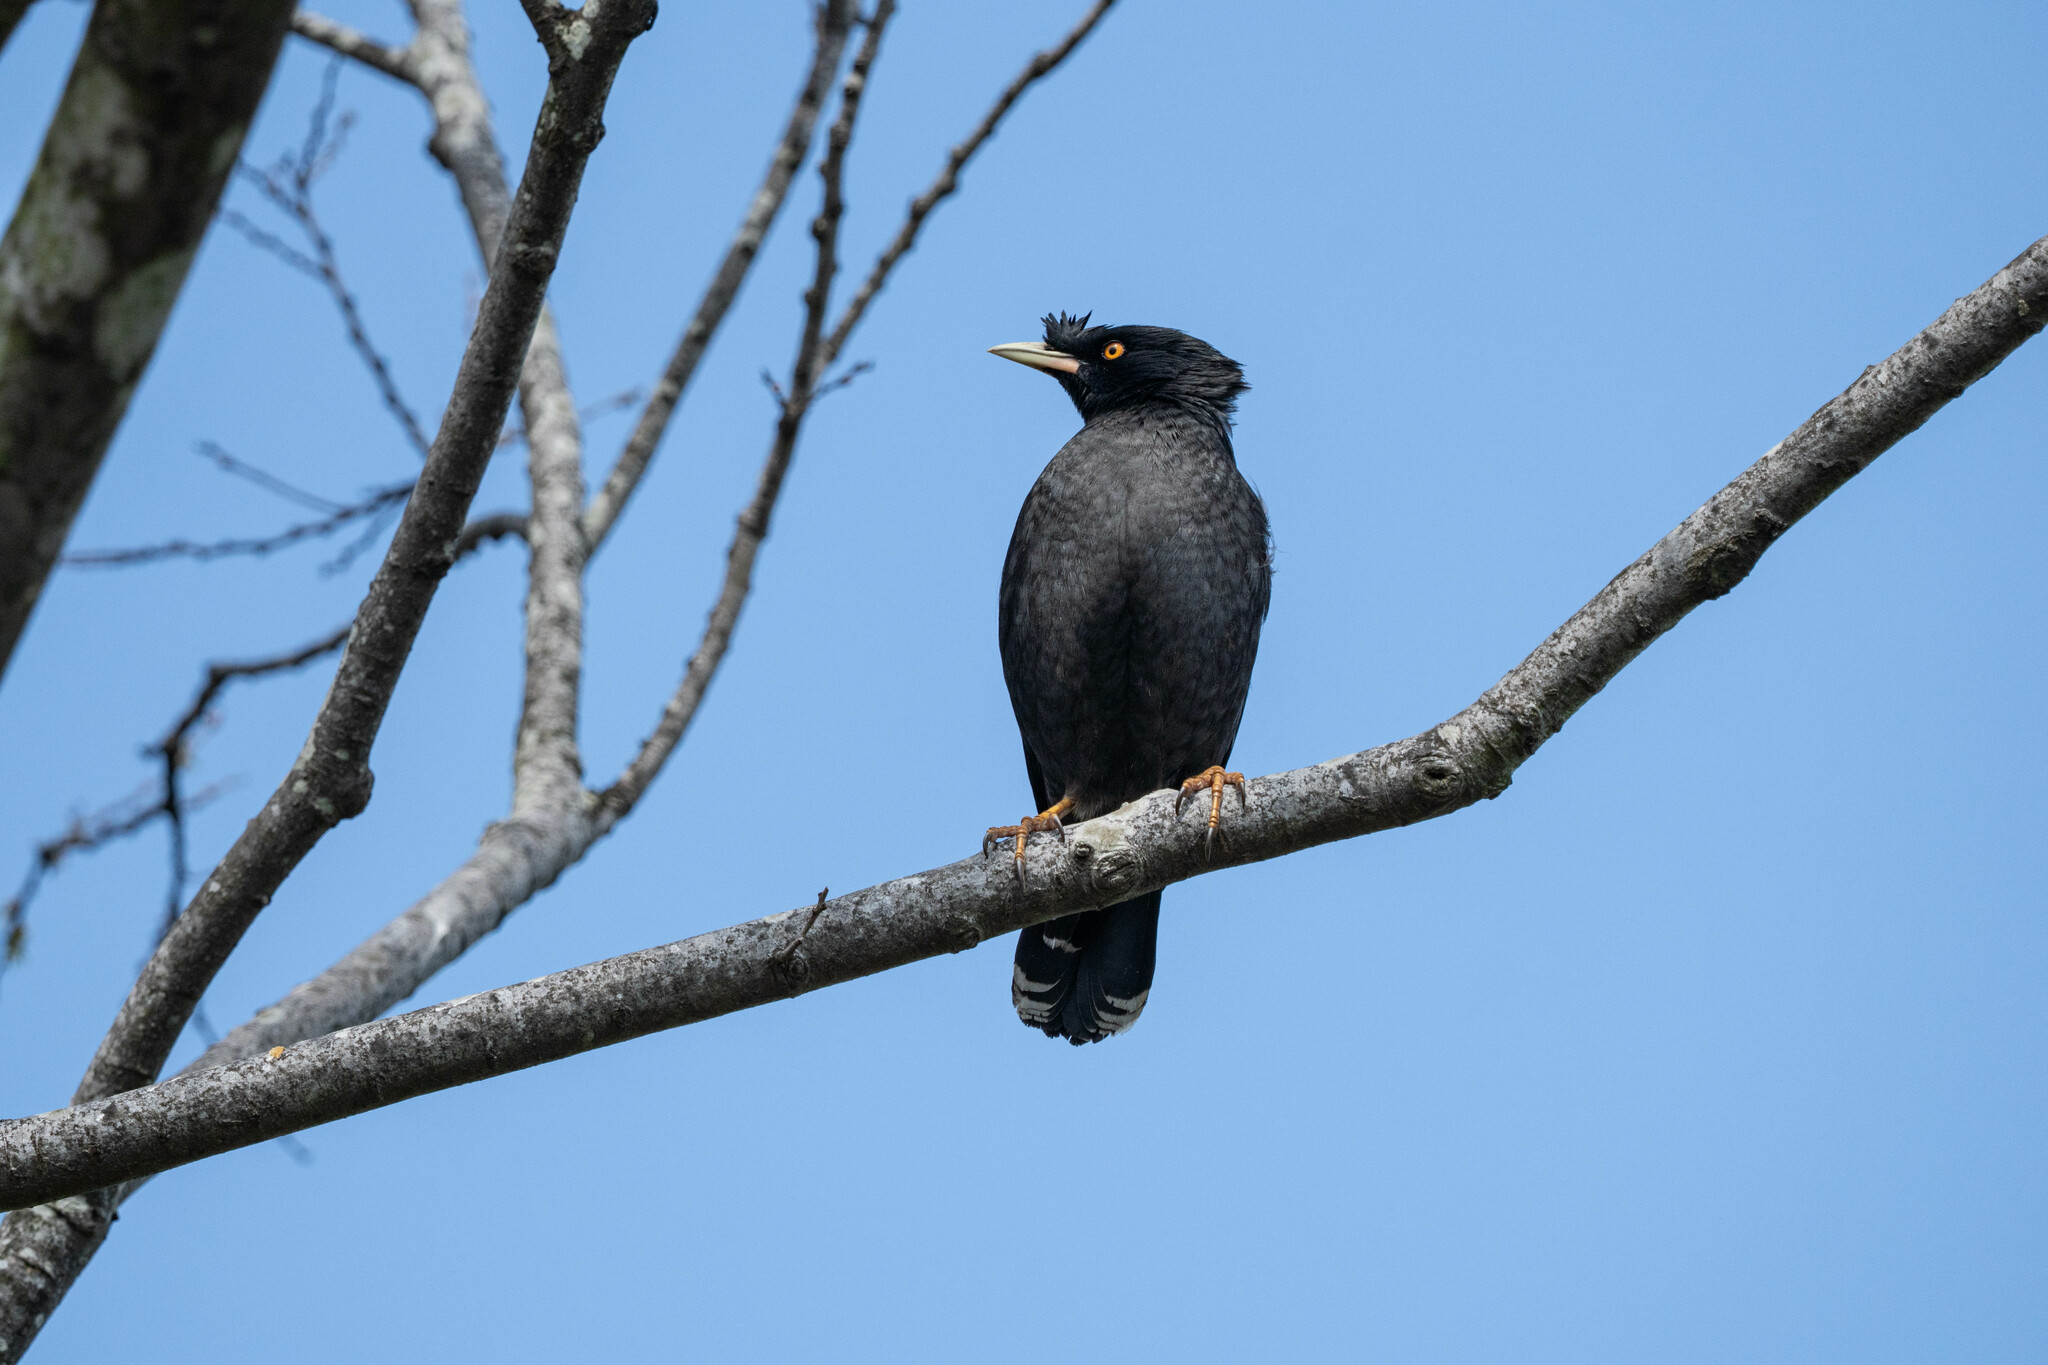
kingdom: Animalia
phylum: Chordata
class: Aves
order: Passeriformes
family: Sturnidae
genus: Acridotheres
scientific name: Acridotheres cristatellus
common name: Crested myna
